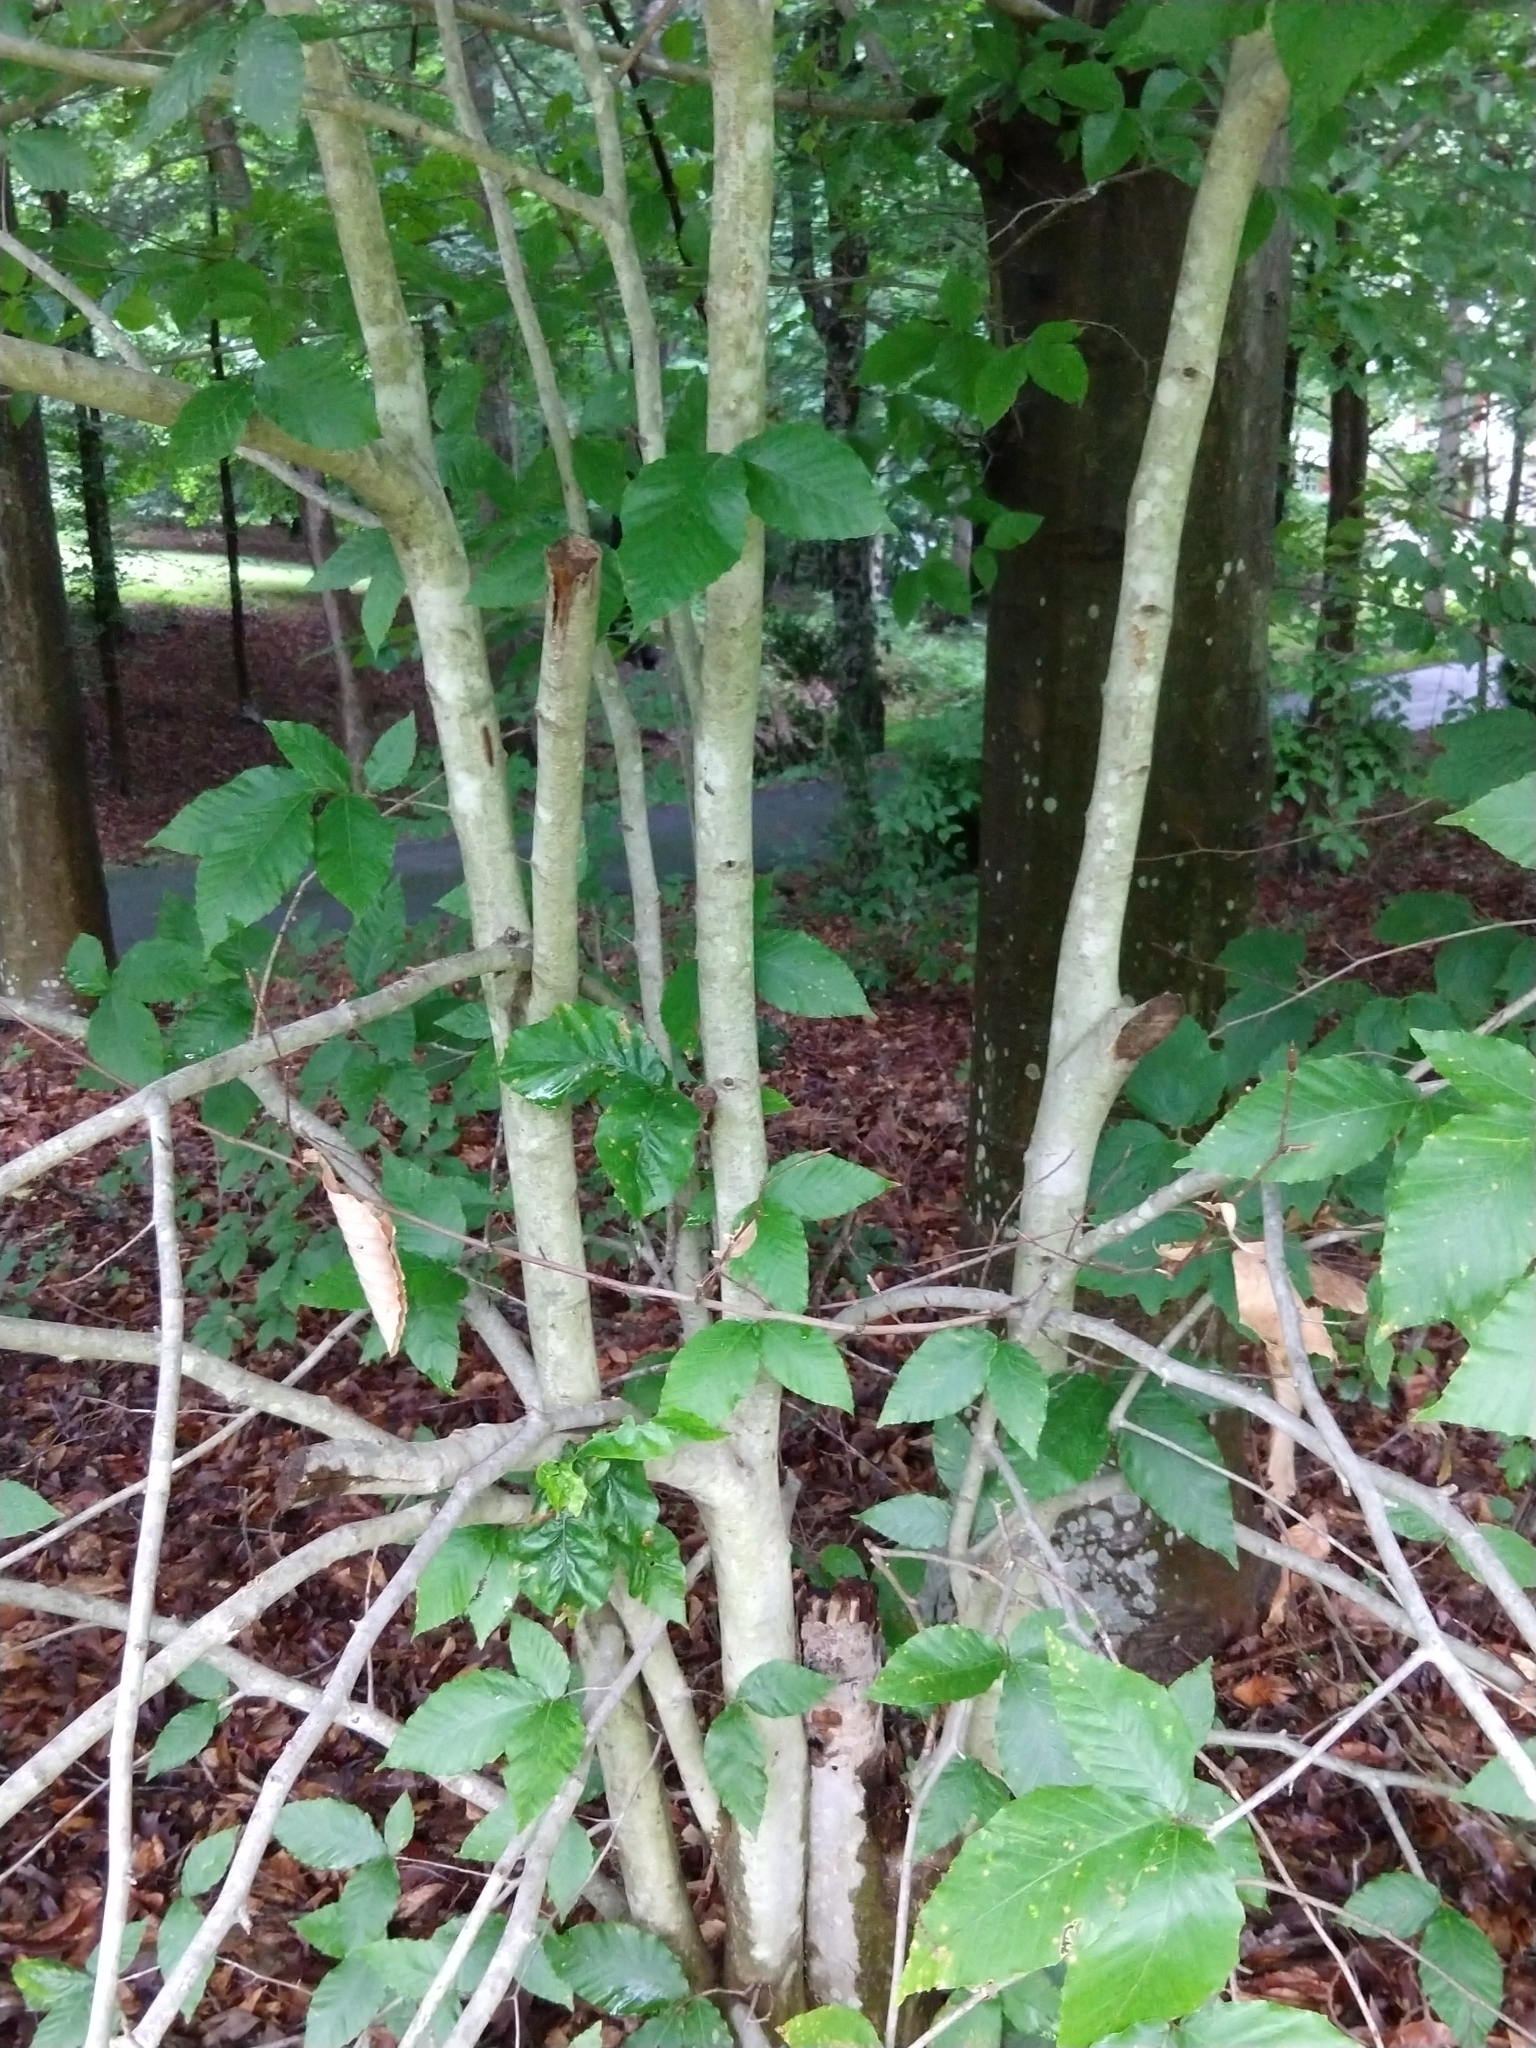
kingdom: Plantae
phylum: Tracheophyta
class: Magnoliopsida
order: Fagales
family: Fagaceae
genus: Fagus
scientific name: Fagus grandifolia
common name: American beech
